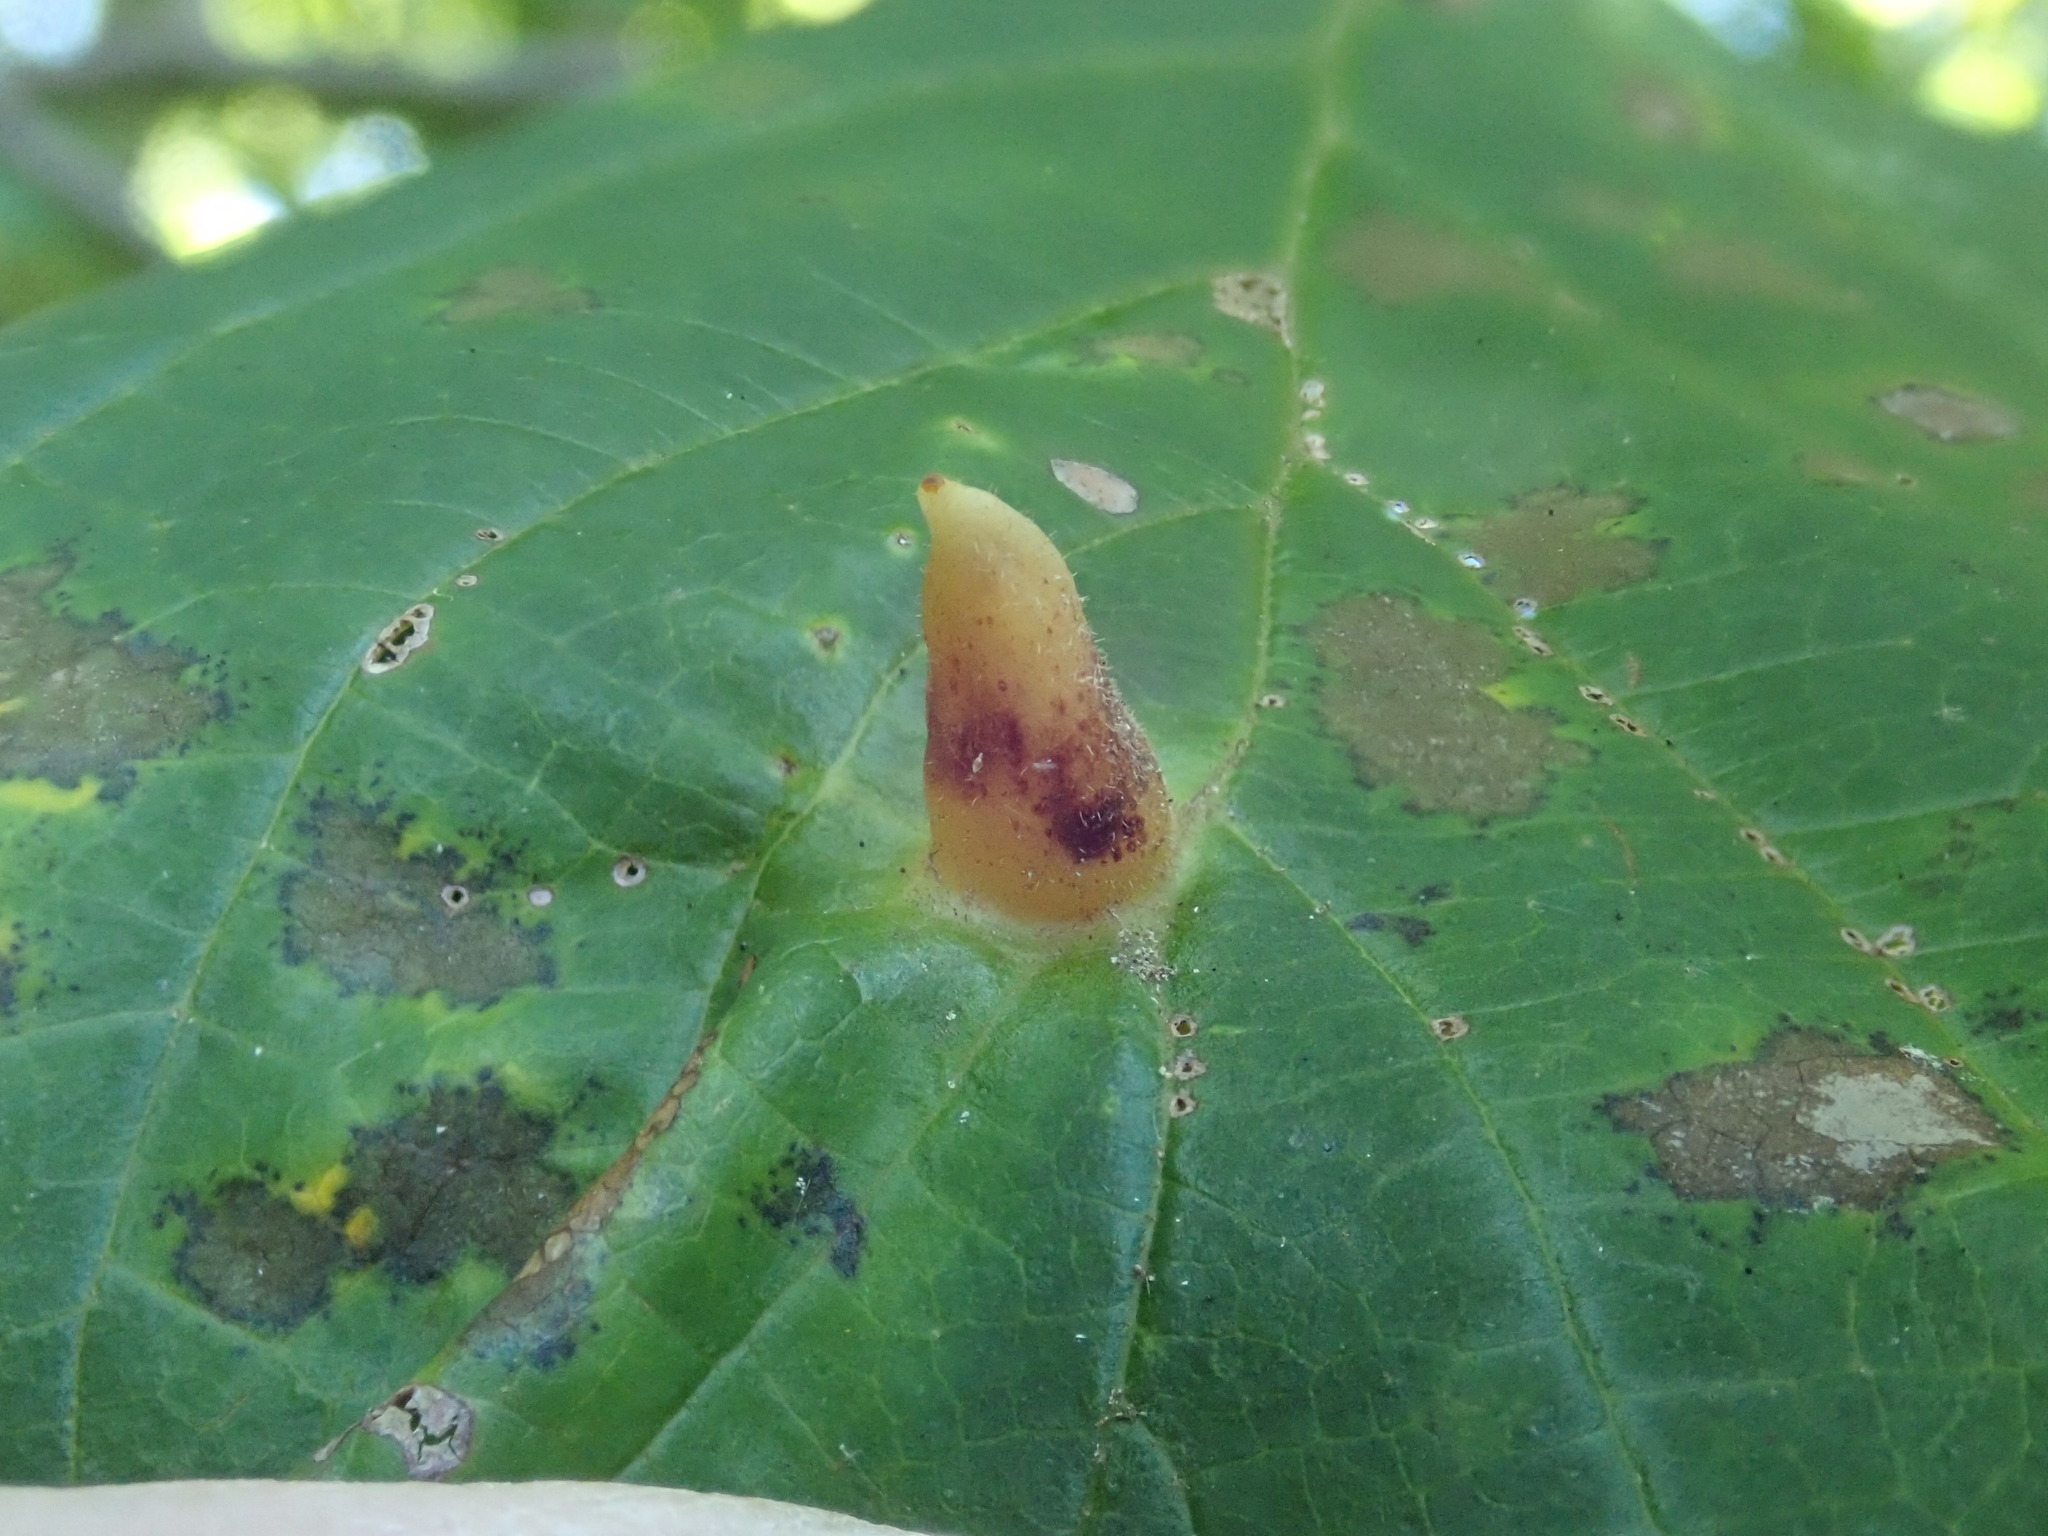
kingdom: Animalia
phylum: Arthropoda
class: Insecta
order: Hemiptera
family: Aphididae
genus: Hormaphis
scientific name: Hormaphis hamamelidis
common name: Witch-hazel cone gall aphid
